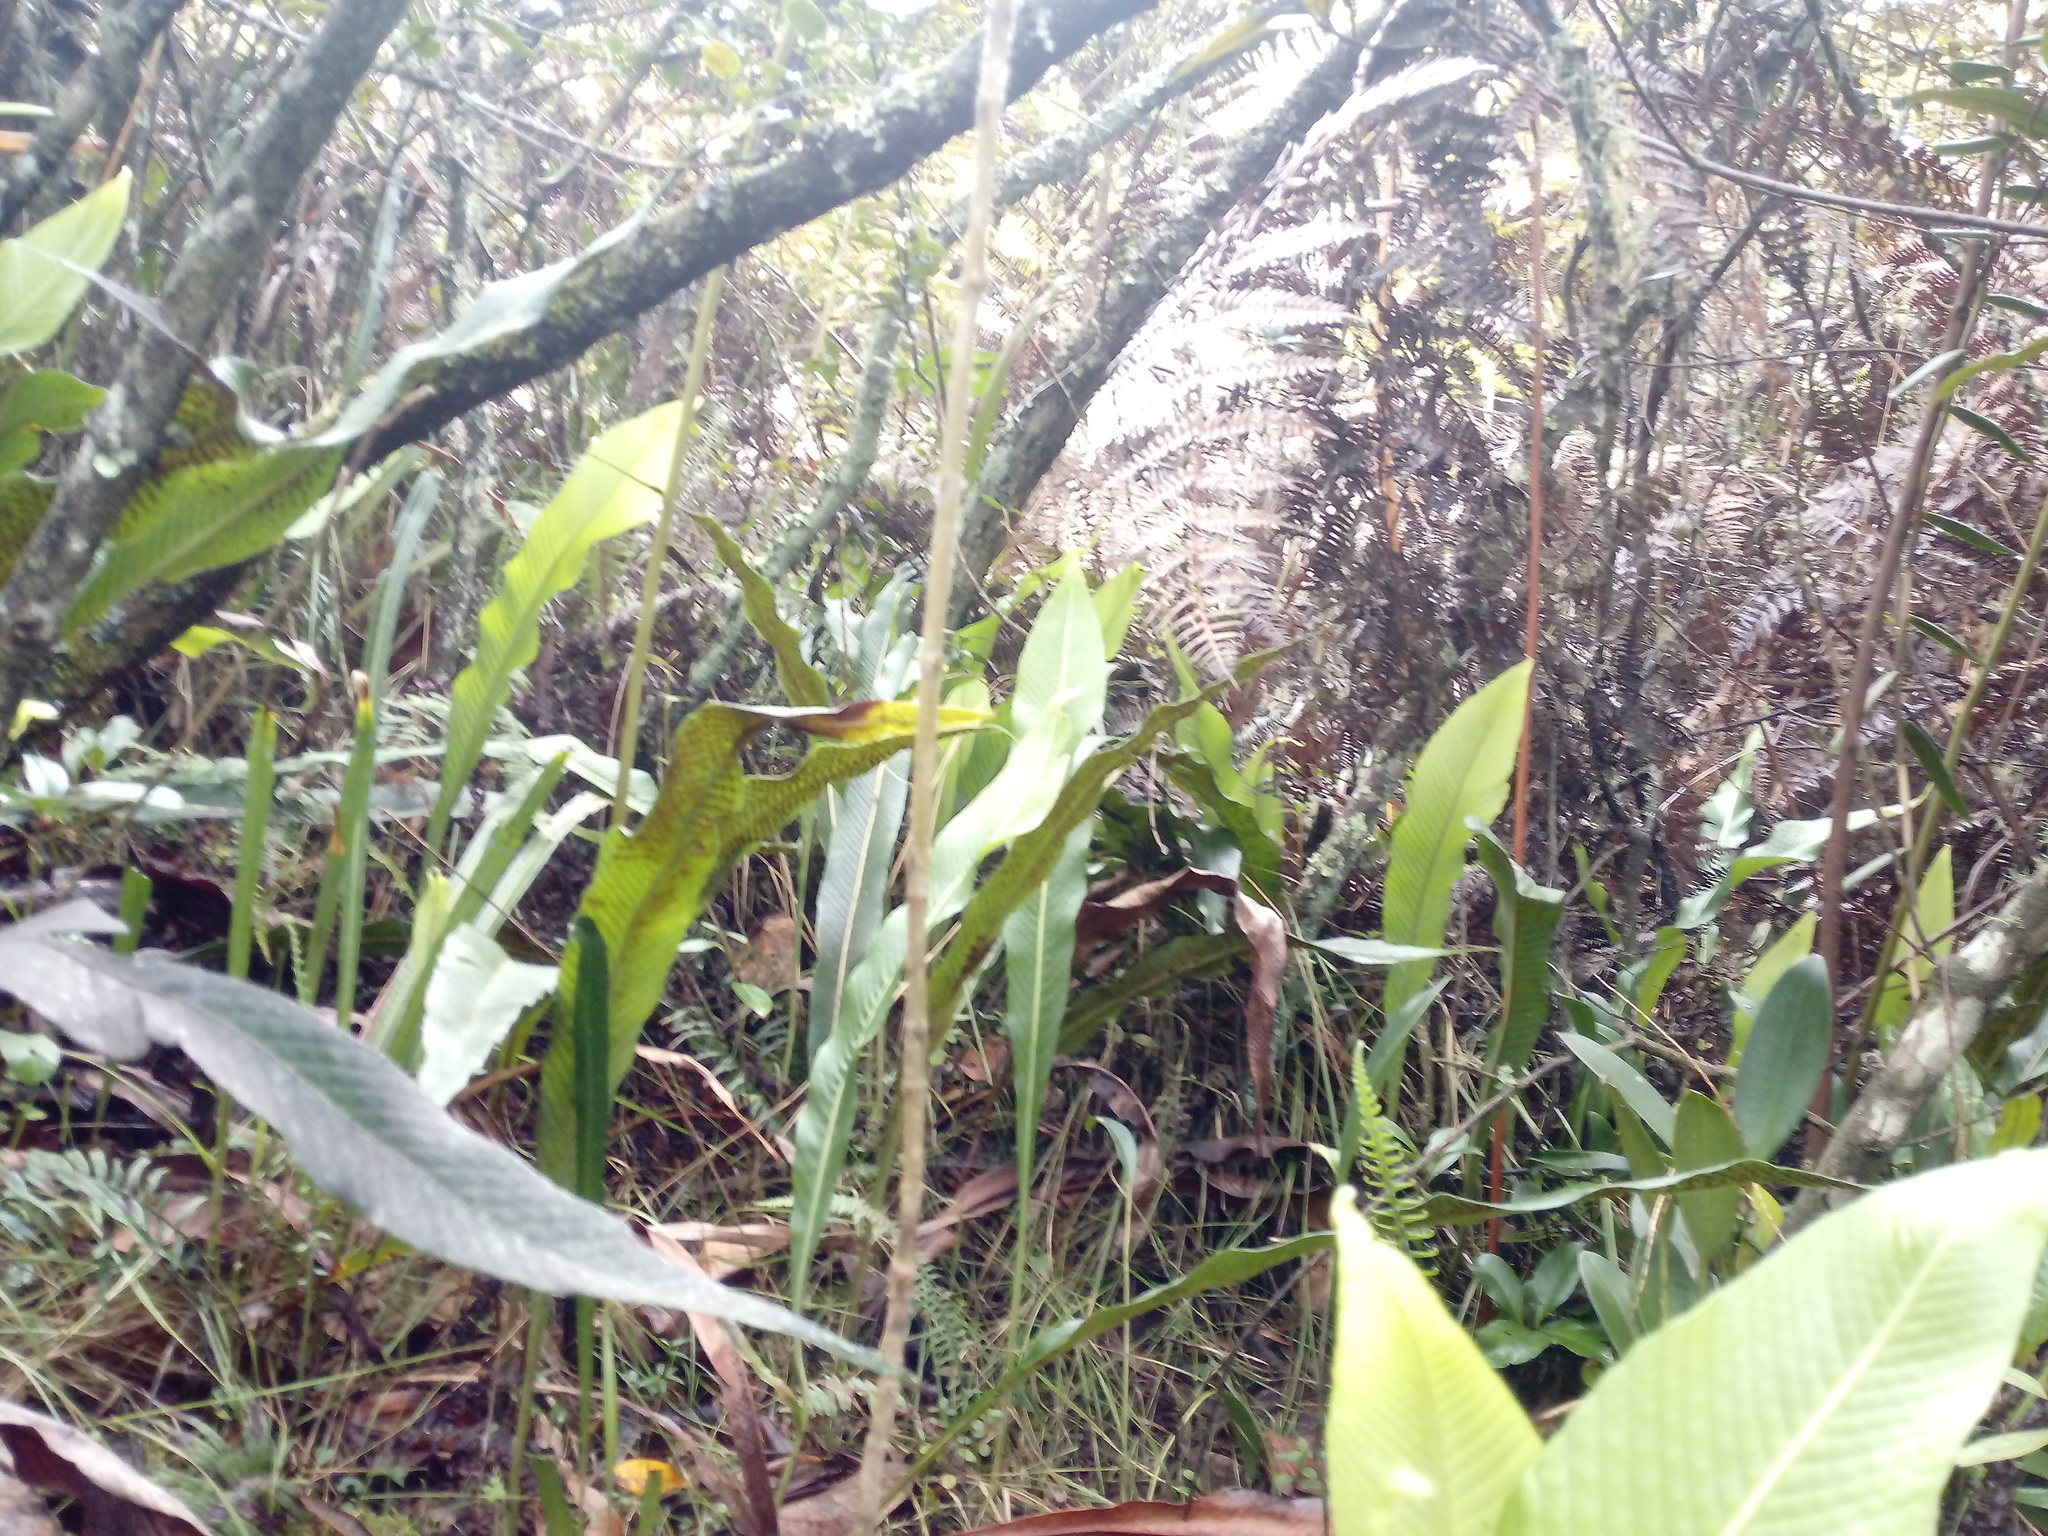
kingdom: Plantae
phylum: Tracheophyta
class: Polypodiopsida
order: Polypodiales
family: Polypodiaceae
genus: Niphidium
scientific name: Niphidium crassifolium
